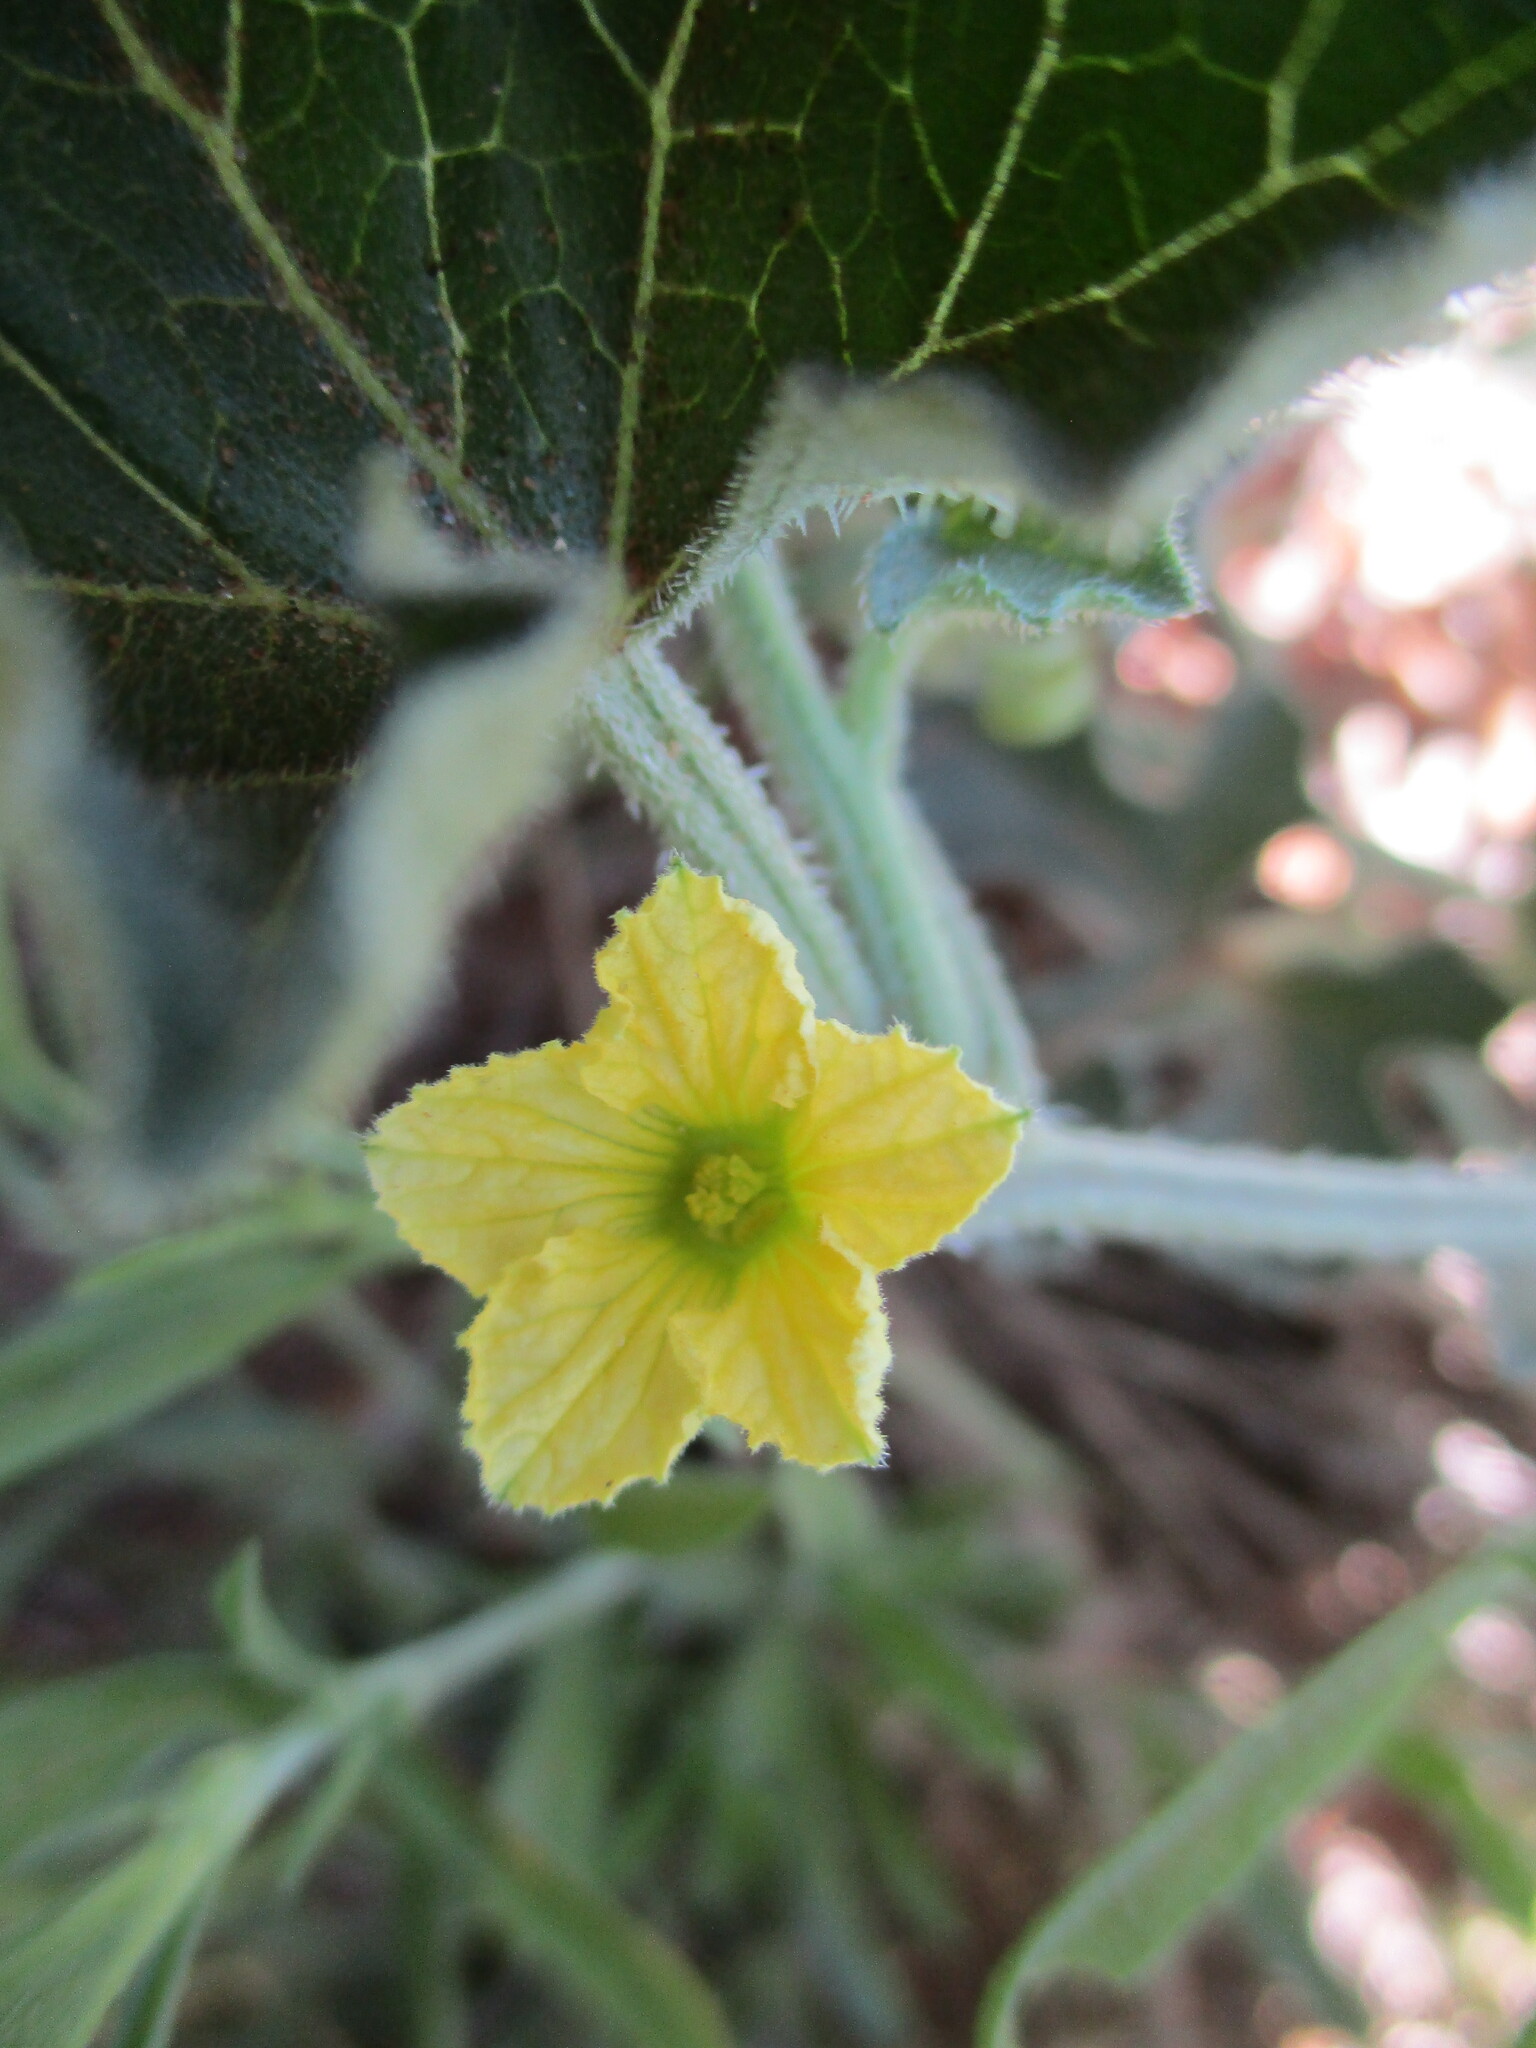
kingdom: Plantae
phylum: Tracheophyta
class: Magnoliopsida
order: Cucurbitales
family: Cucurbitaceae
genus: Cucumis
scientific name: Cucumis meeusei
